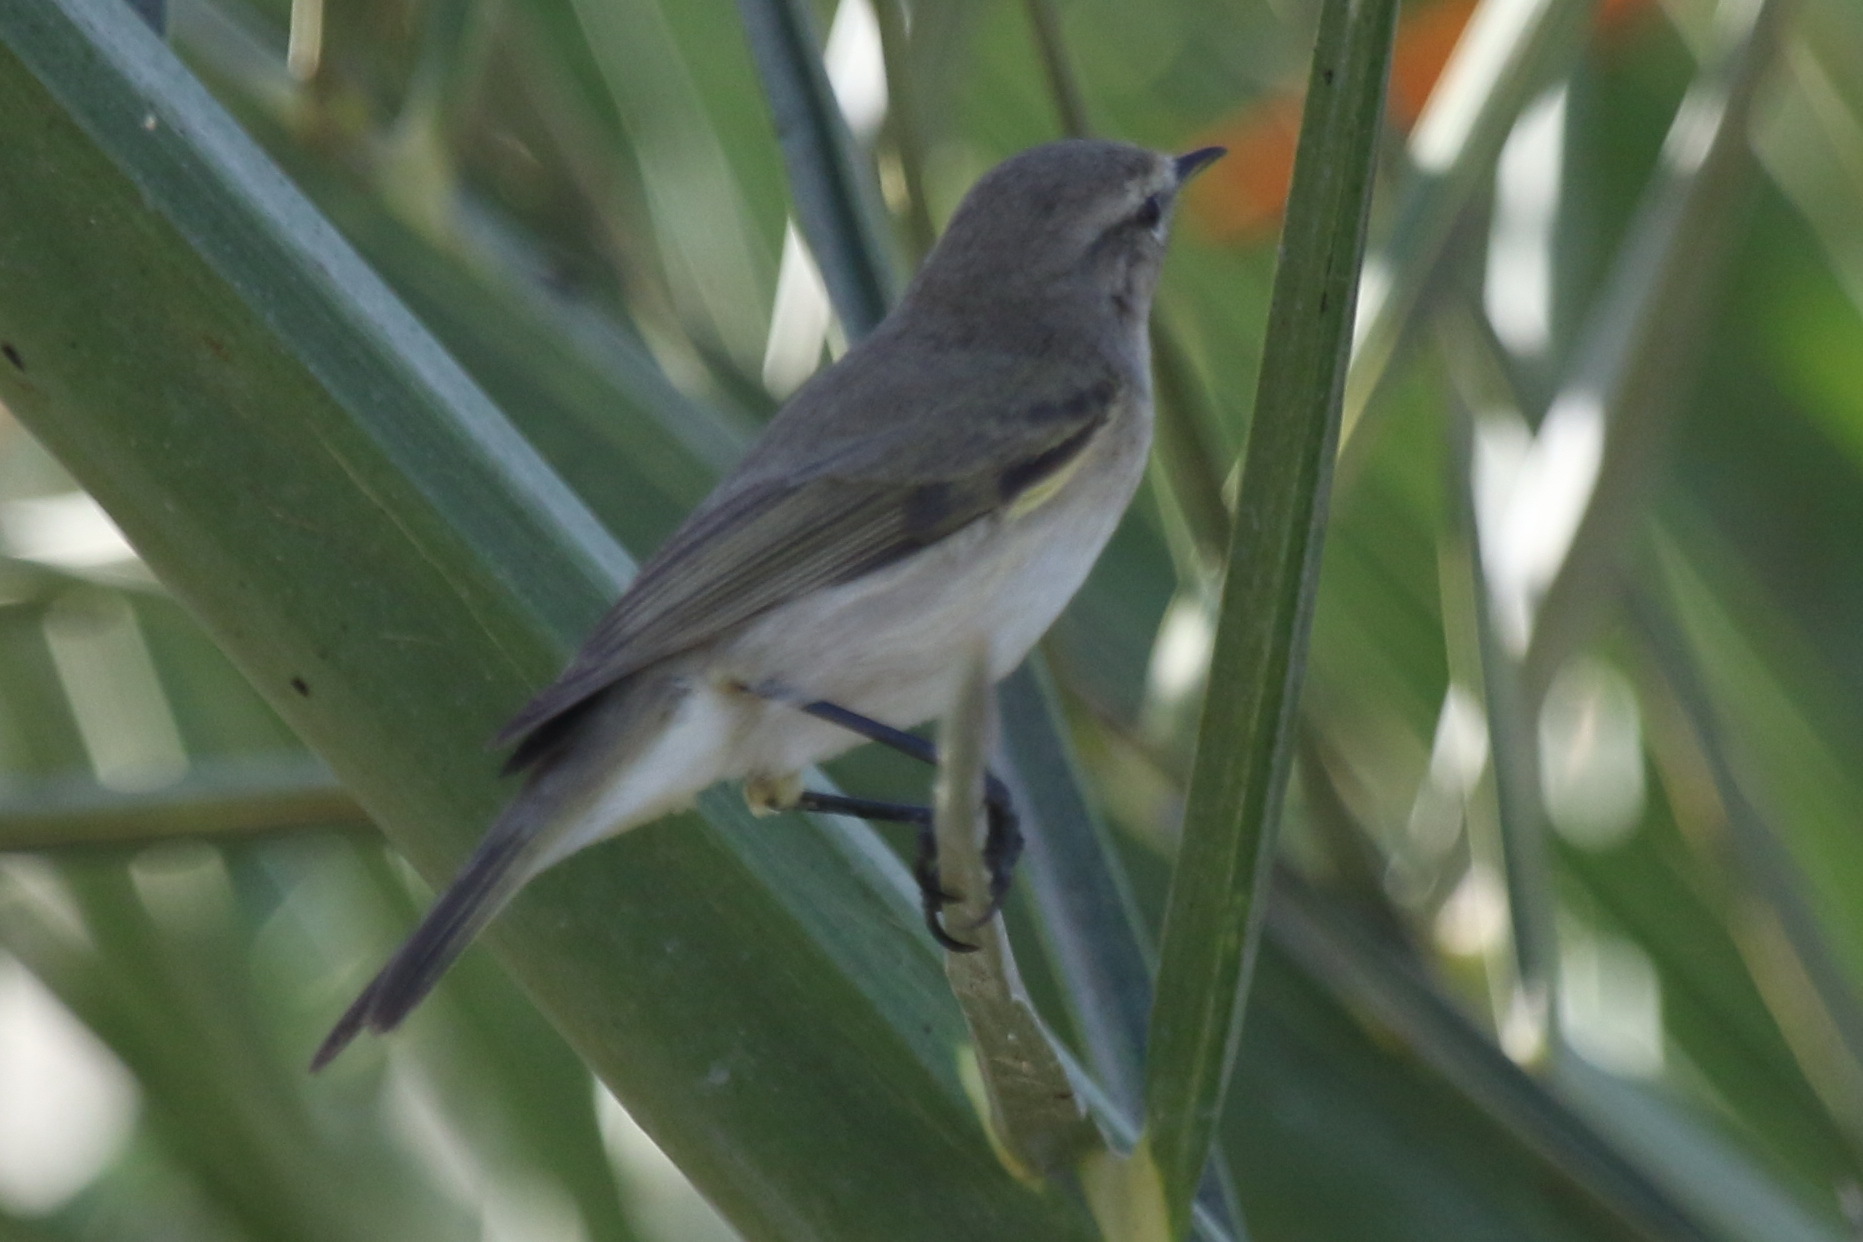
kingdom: Animalia
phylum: Chordata
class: Aves
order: Passeriformes
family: Phylloscopidae
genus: Phylloscopus
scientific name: Phylloscopus collybita
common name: Common chiffchaff
